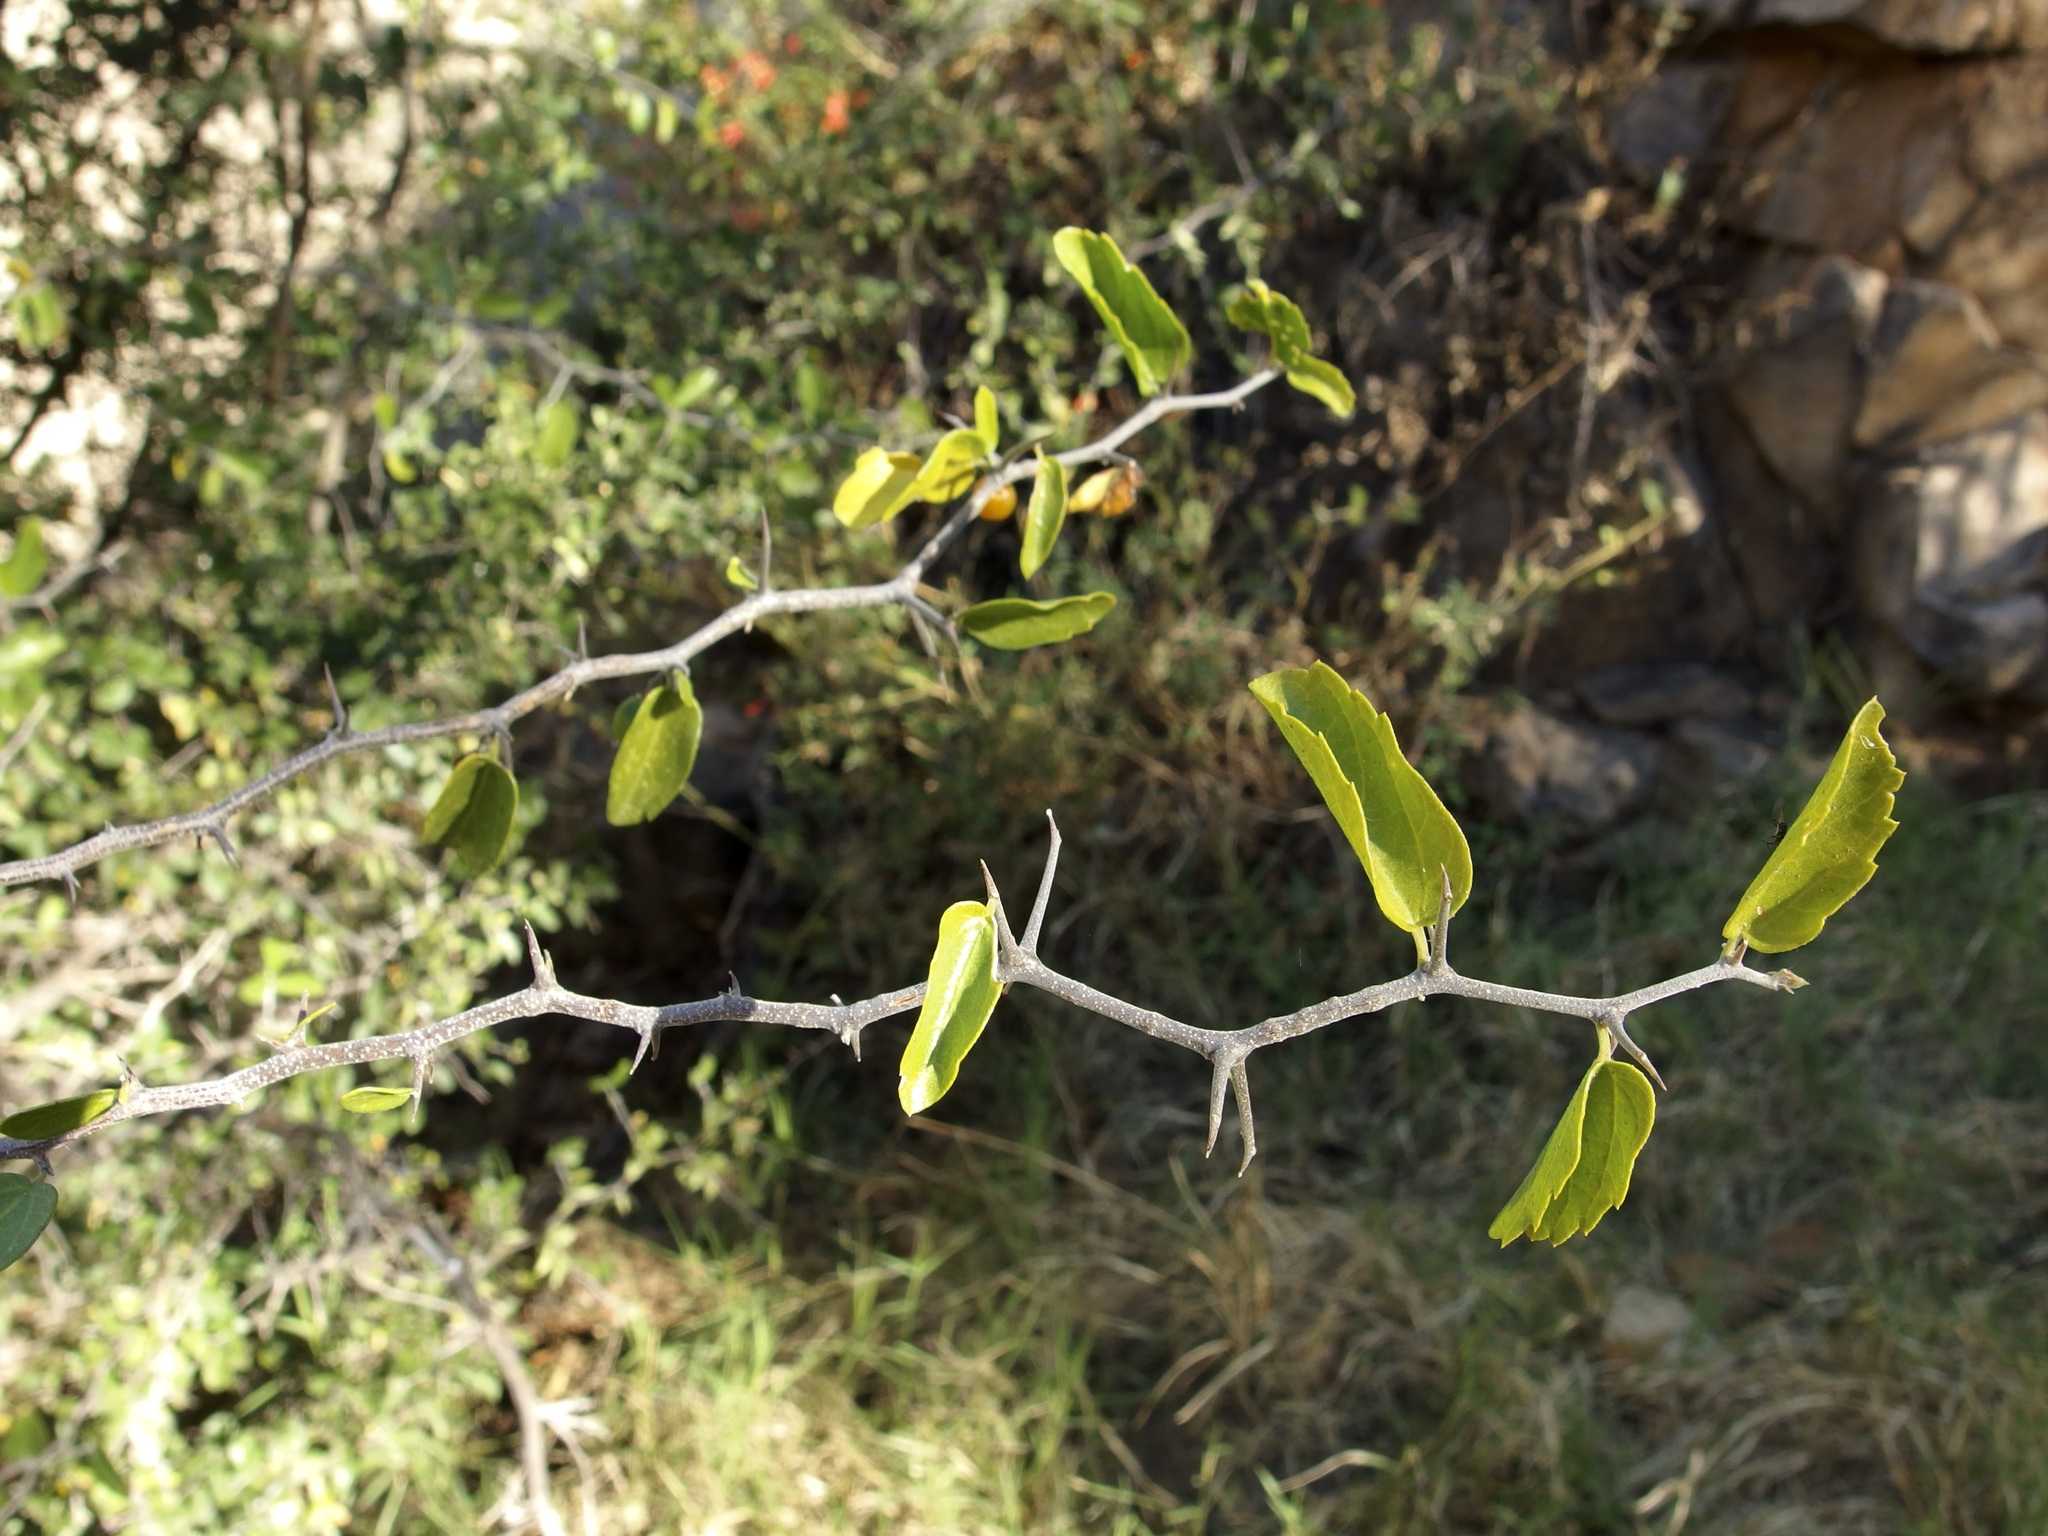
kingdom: Plantae
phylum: Tracheophyta
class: Magnoliopsida
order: Rosales
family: Cannabaceae
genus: Celtis
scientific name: Celtis pallida
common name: Desert hackberry
